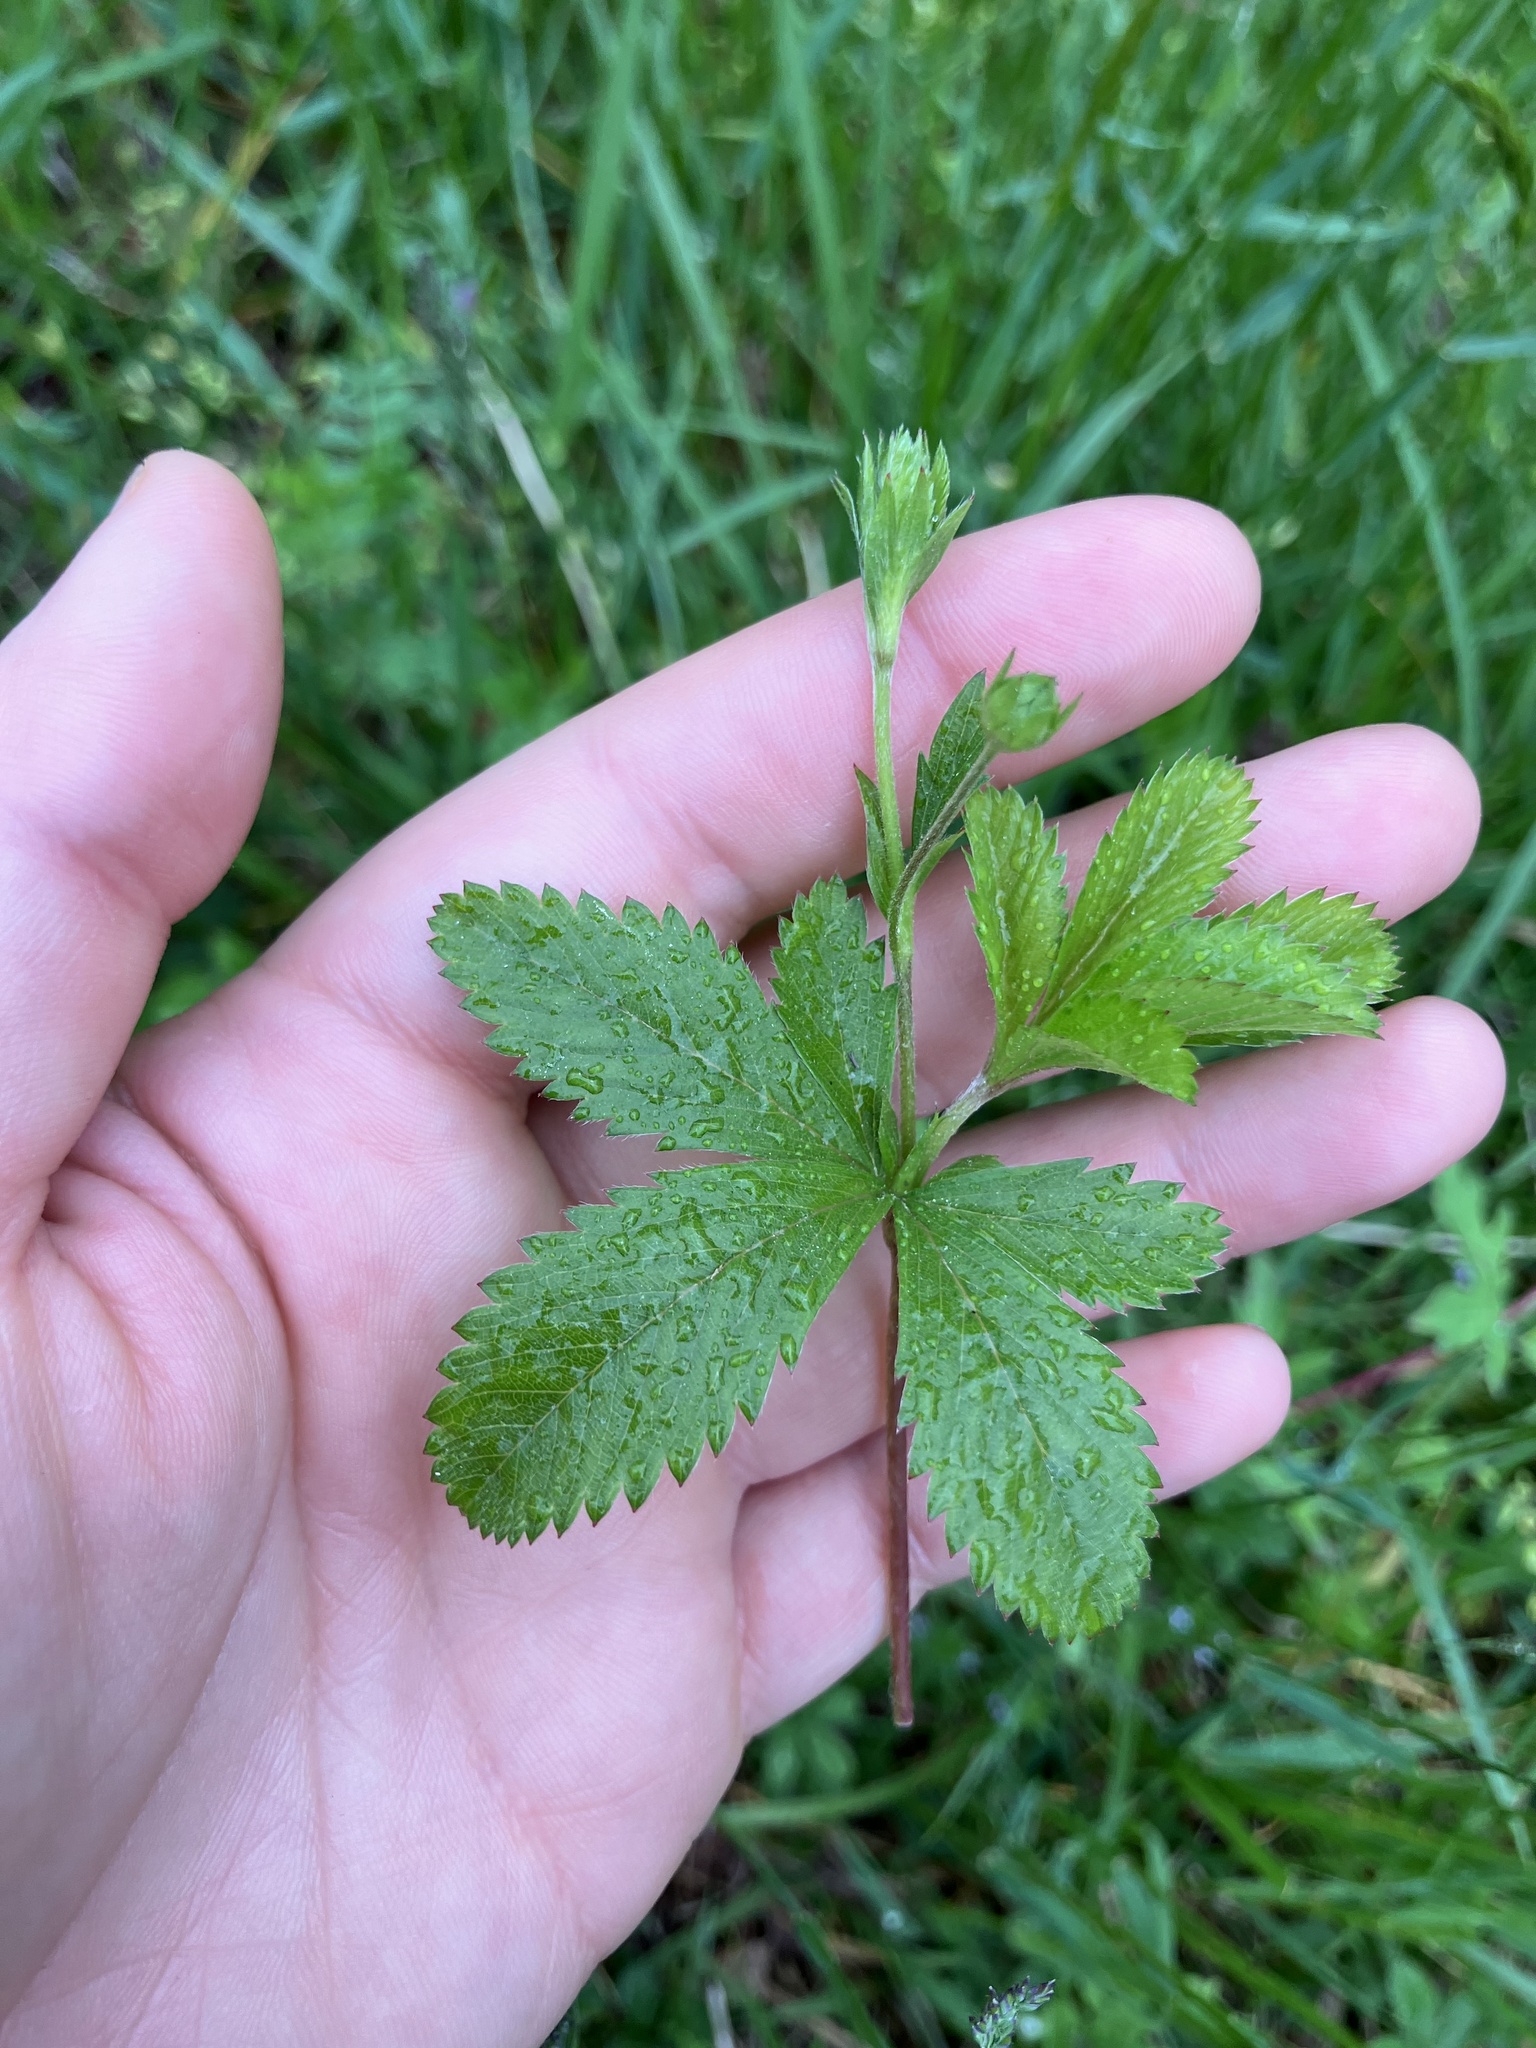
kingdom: Plantae
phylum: Tracheophyta
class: Magnoliopsida
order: Rosales
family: Rosaceae
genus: Potentilla
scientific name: Potentilla simplex
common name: Old field cinquefoil
